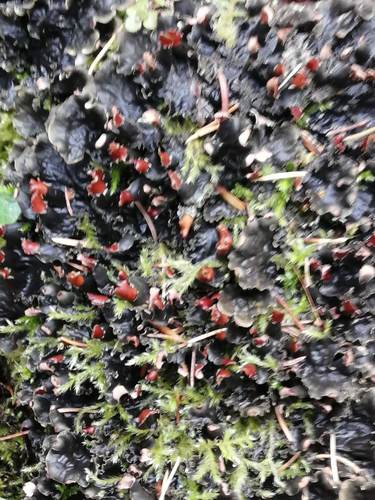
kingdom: Fungi
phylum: Ascomycota
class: Lecanoromycetes
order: Peltigerales
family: Peltigeraceae
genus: Peltigera
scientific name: Peltigera polydactylon
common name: Many-fruited pelt lichen
